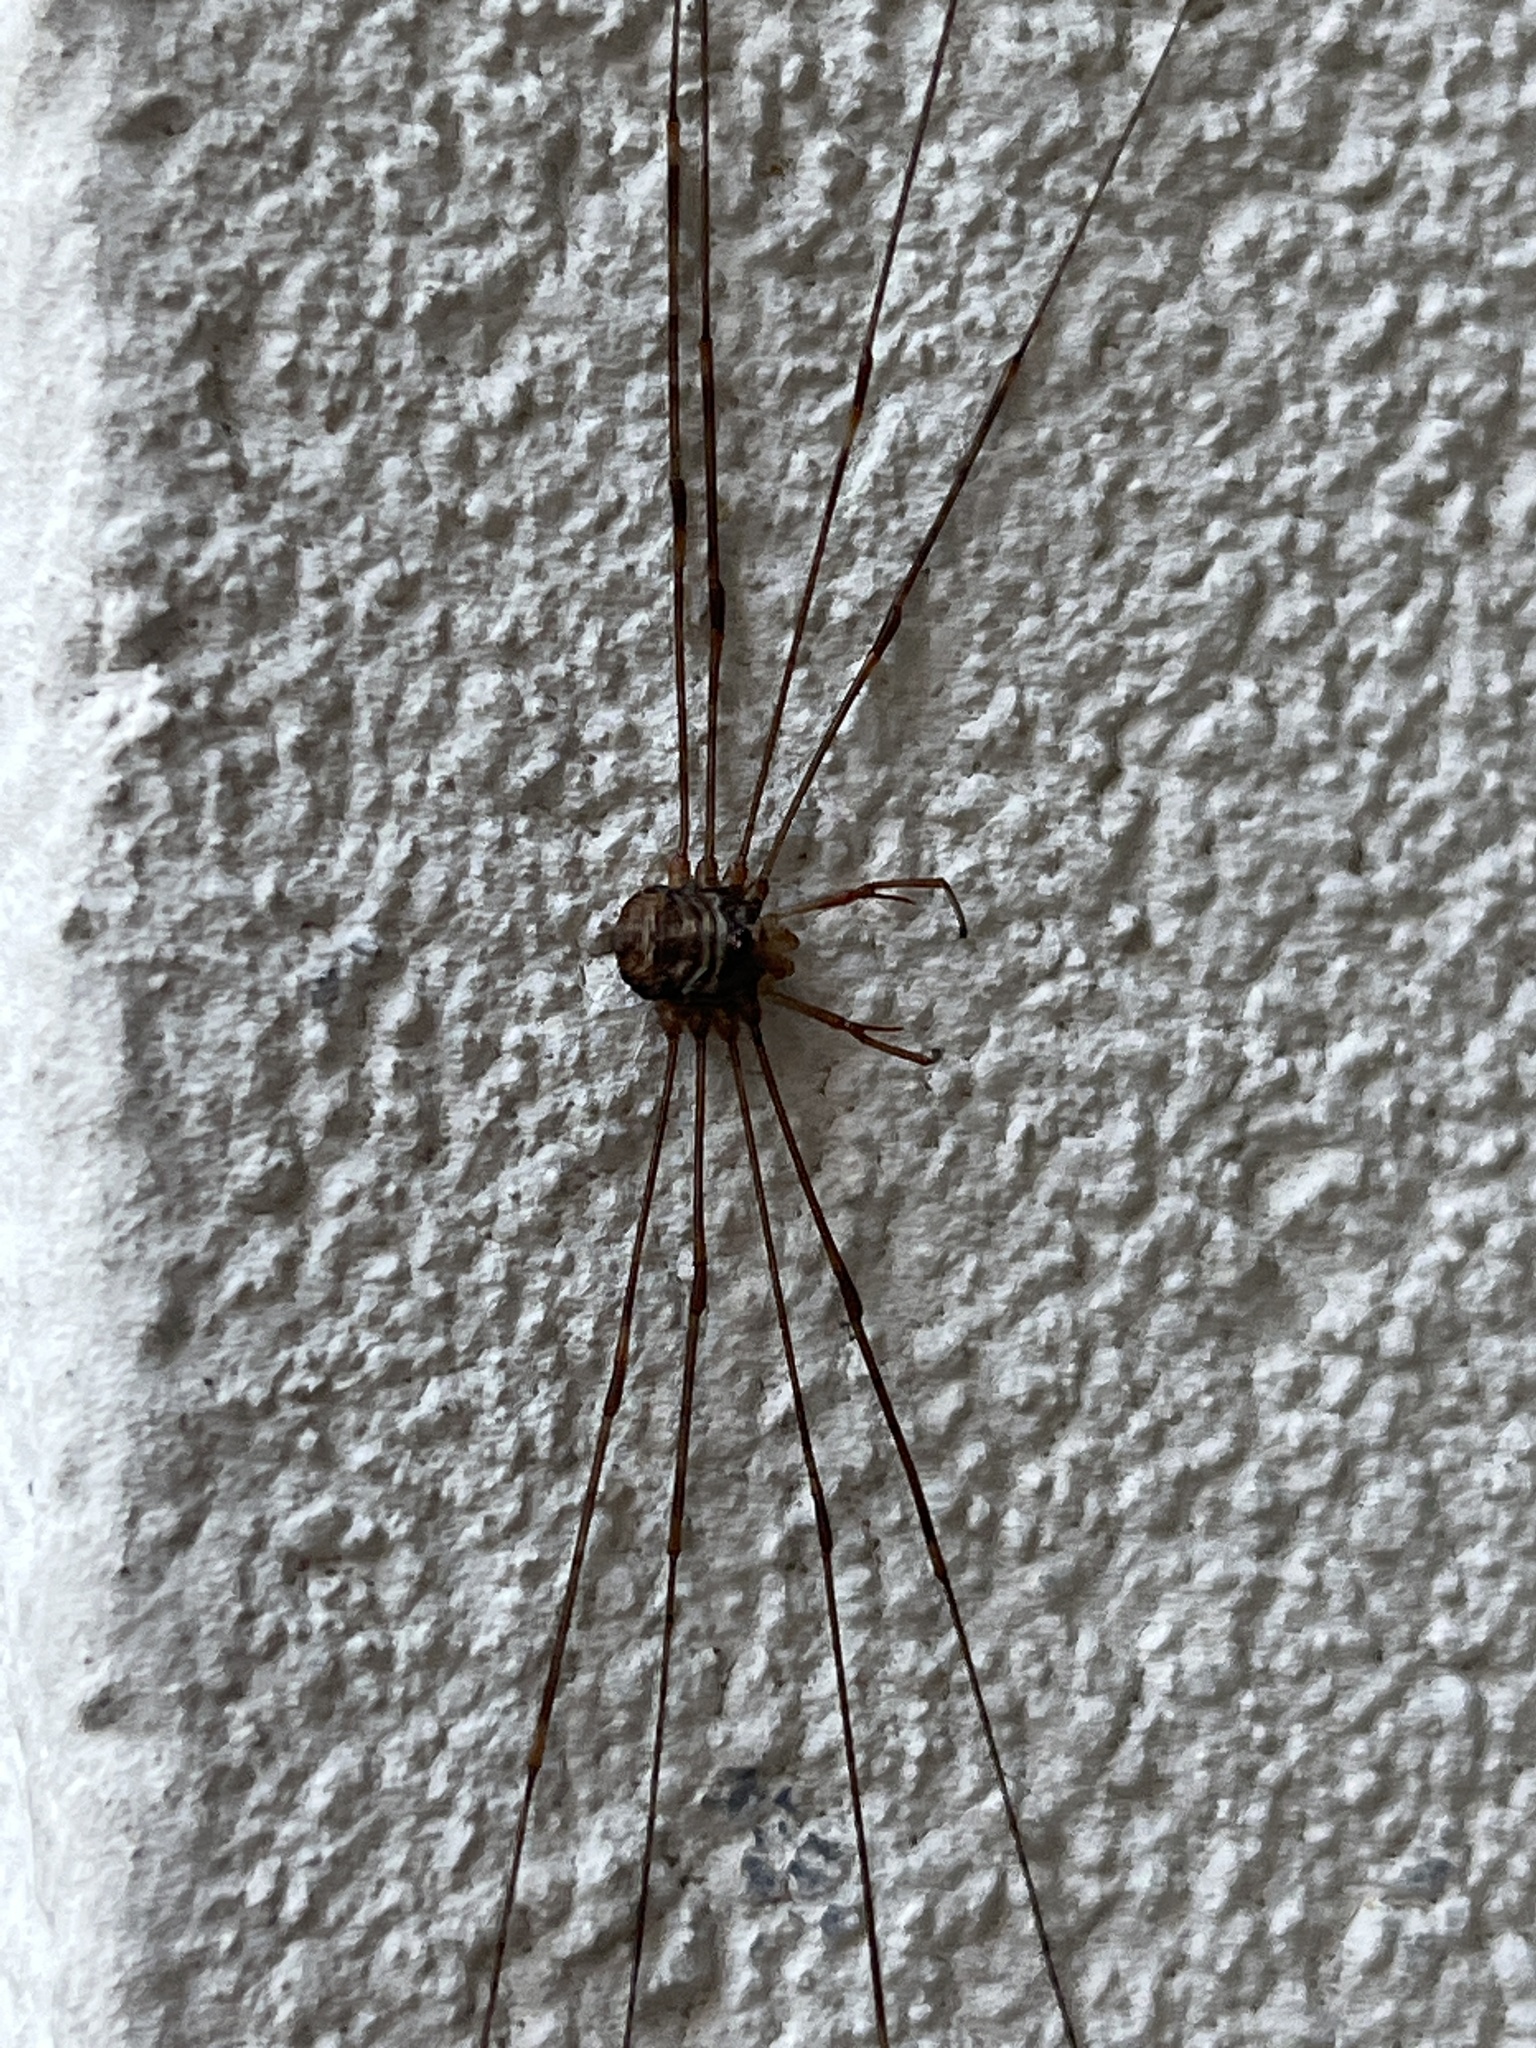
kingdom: Animalia
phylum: Arthropoda
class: Arachnida
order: Opiliones
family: Phalangiidae
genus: Dicranopalpus
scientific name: Dicranopalpus ramosus
